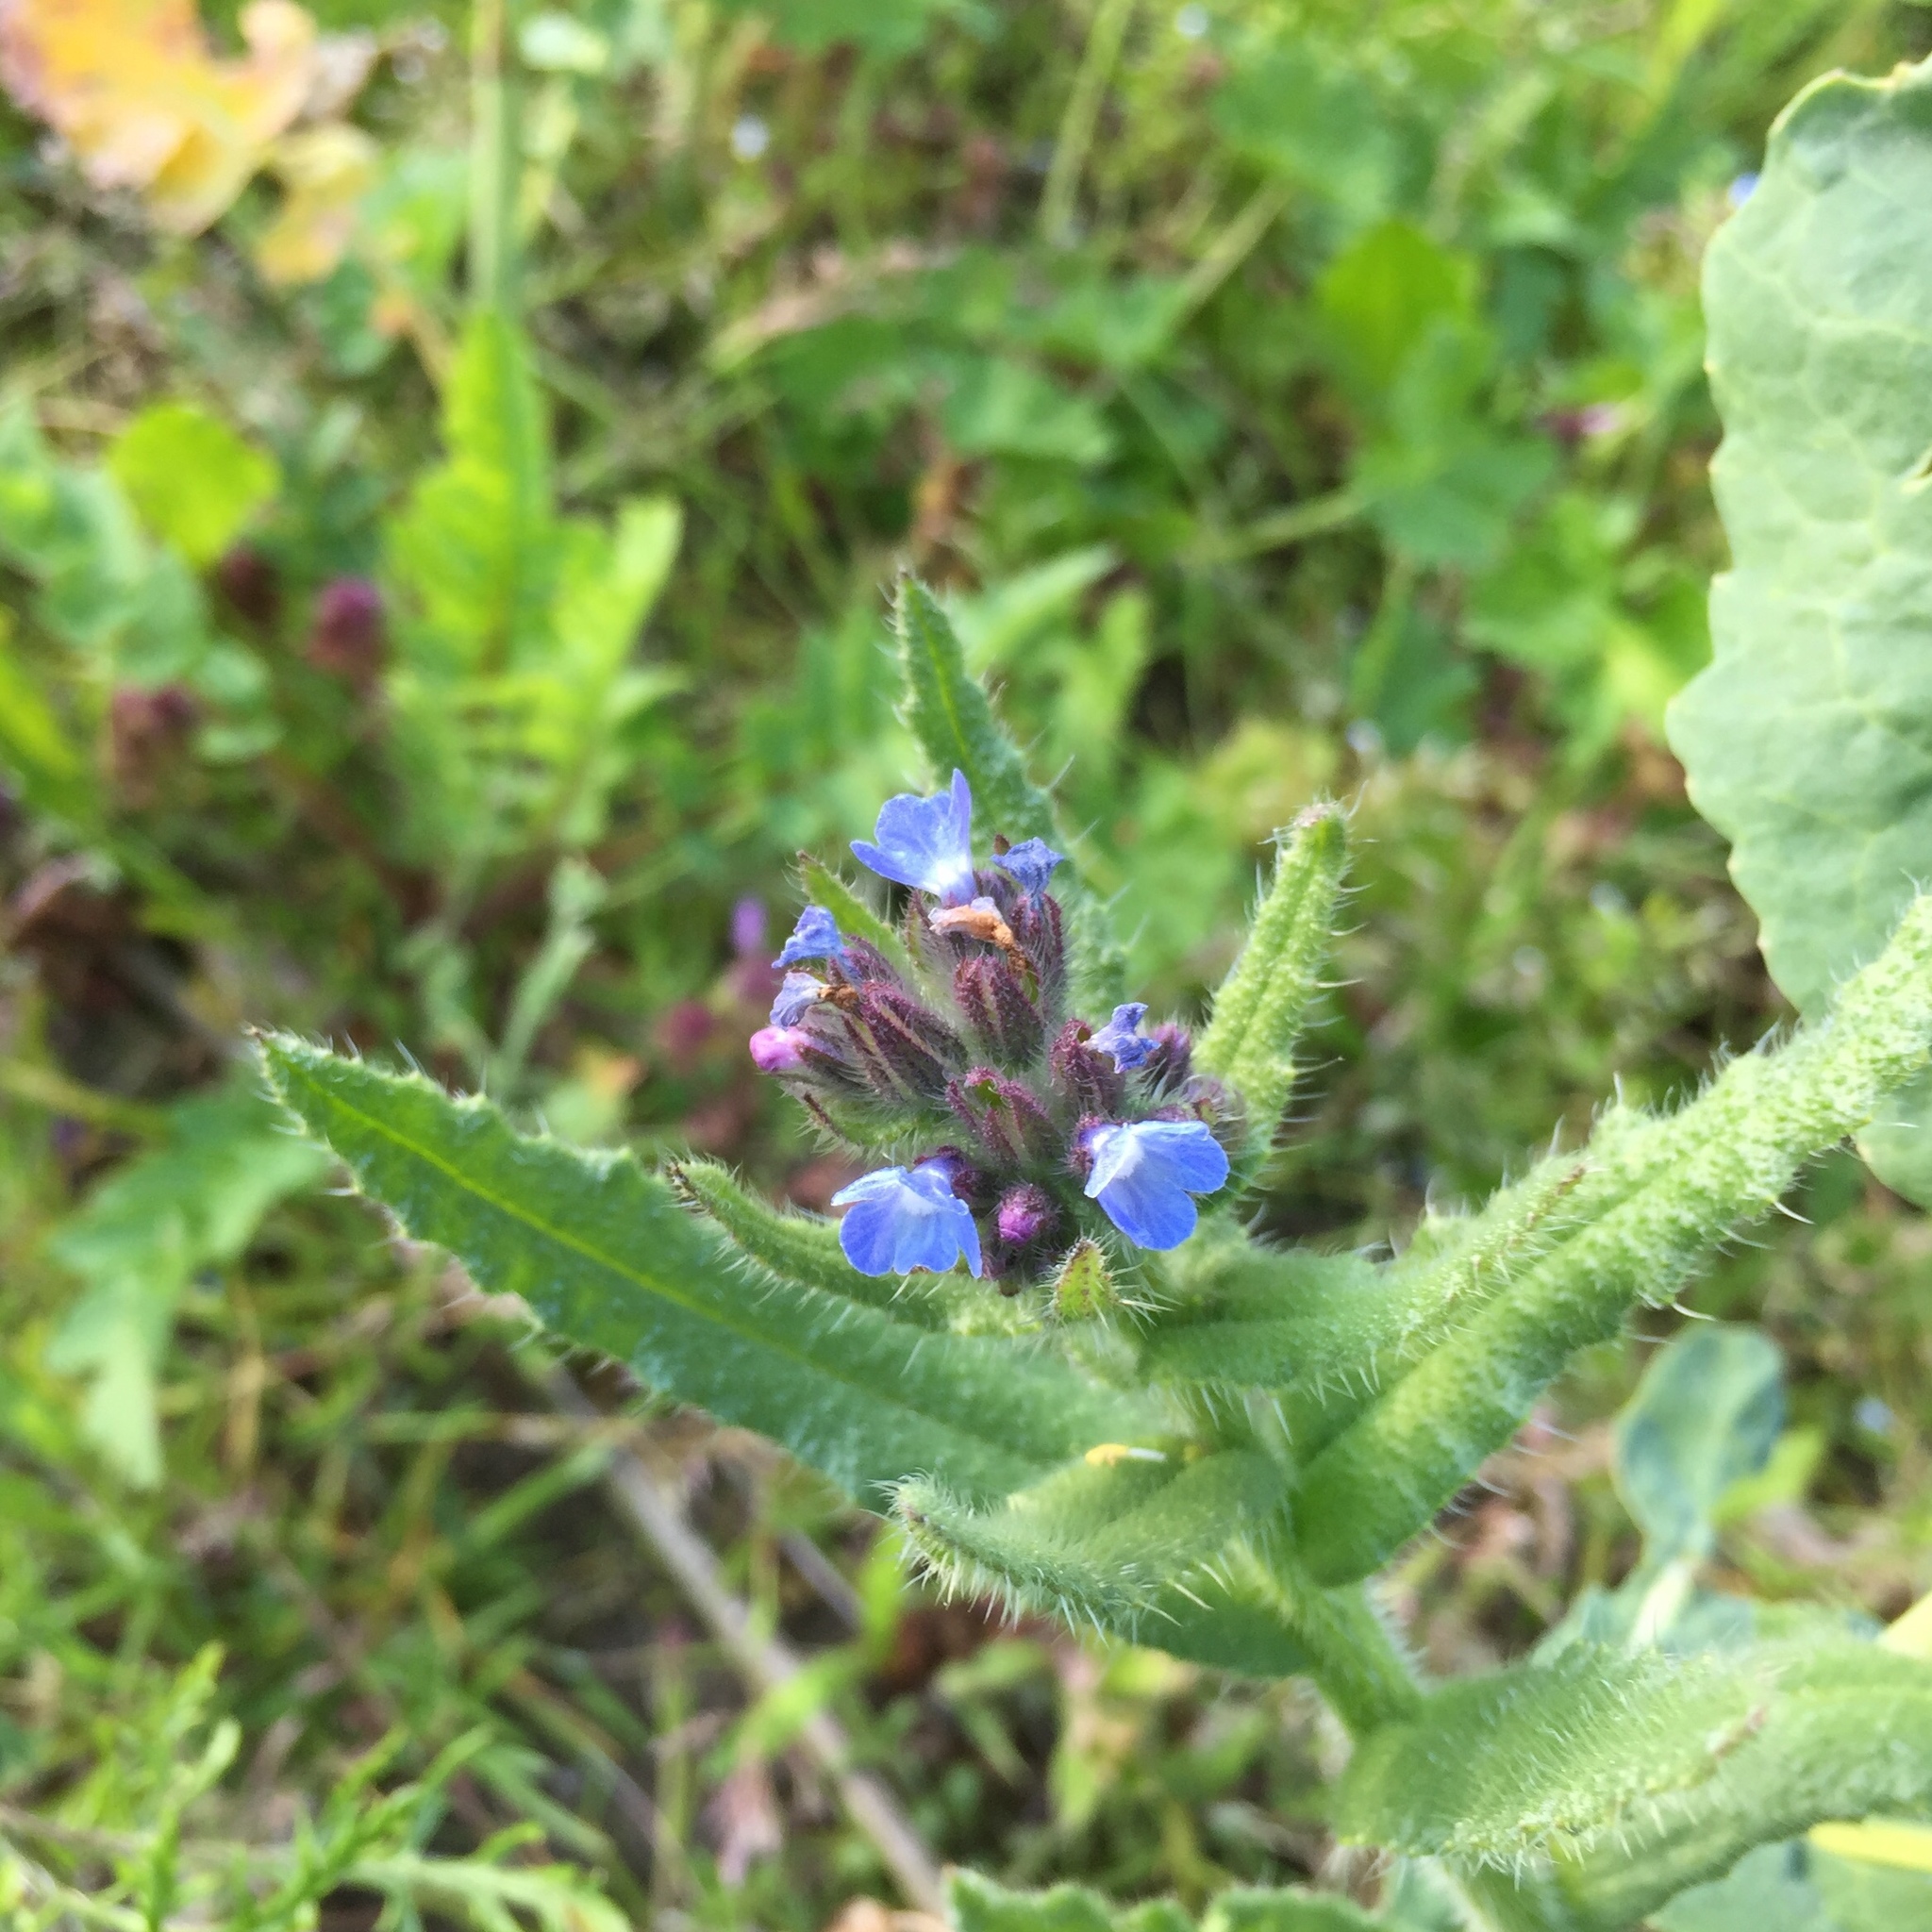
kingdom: Plantae
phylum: Tracheophyta
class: Magnoliopsida
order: Boraginales
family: Boraginaceae
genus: Lycopsis
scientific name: Lycopsis arvensis
